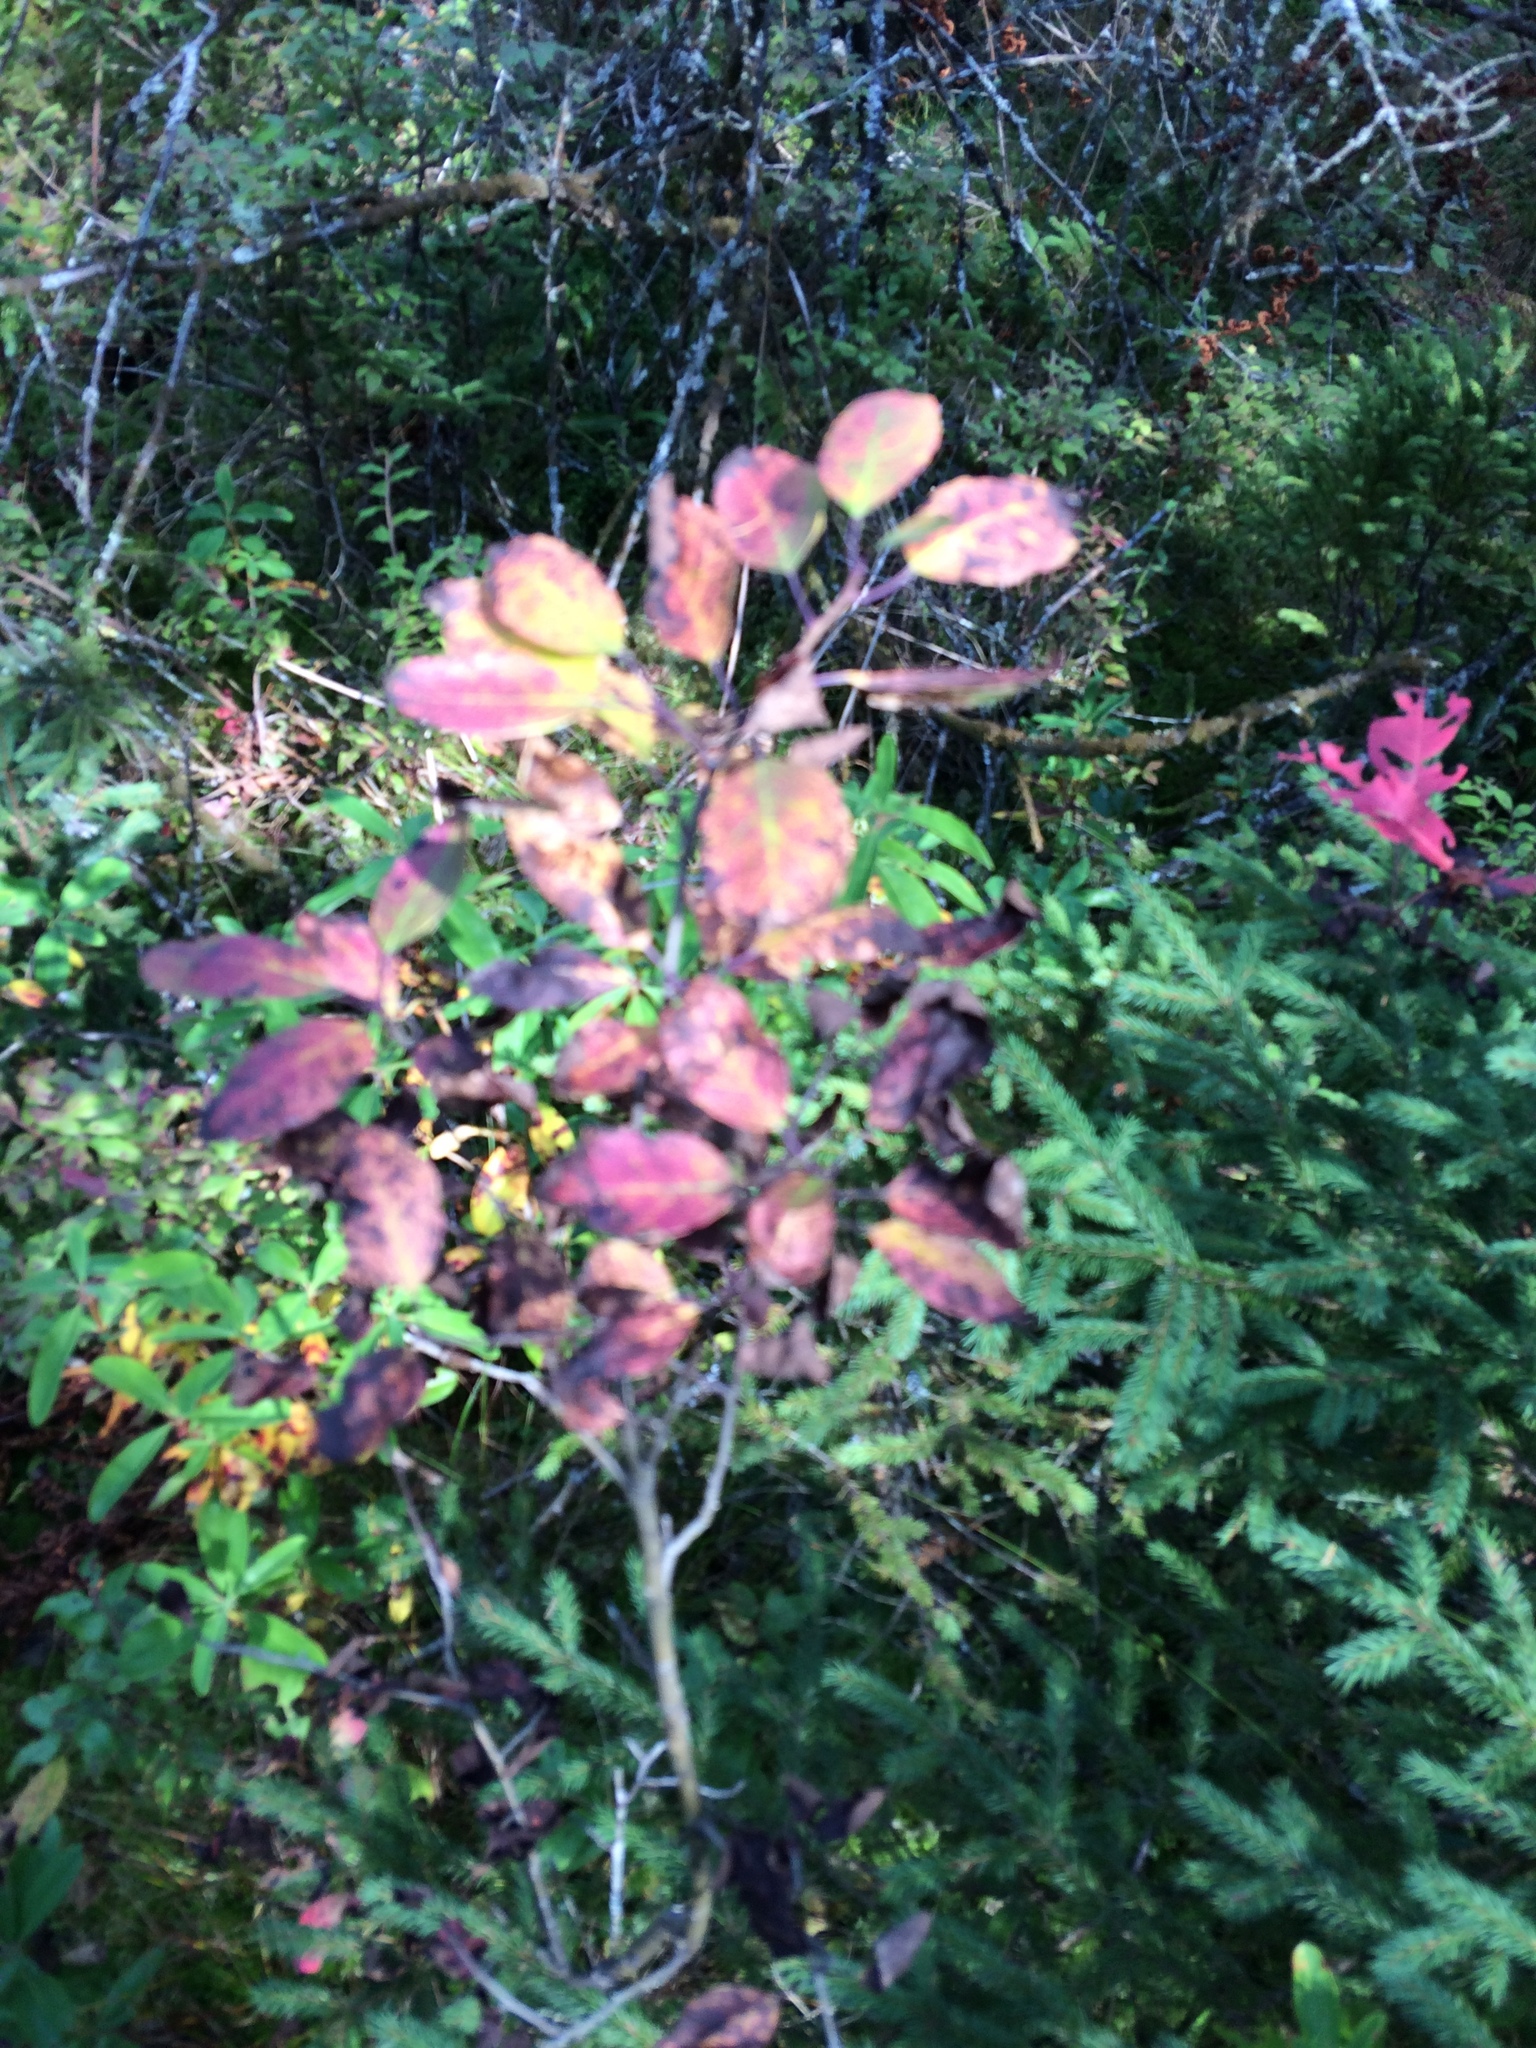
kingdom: Plantae
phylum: Tracheophyta
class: Magnoliopsida
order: Aquifoliales
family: Aquifoliaceae
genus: Ilex
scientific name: Ilex mucronata
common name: Catberry
